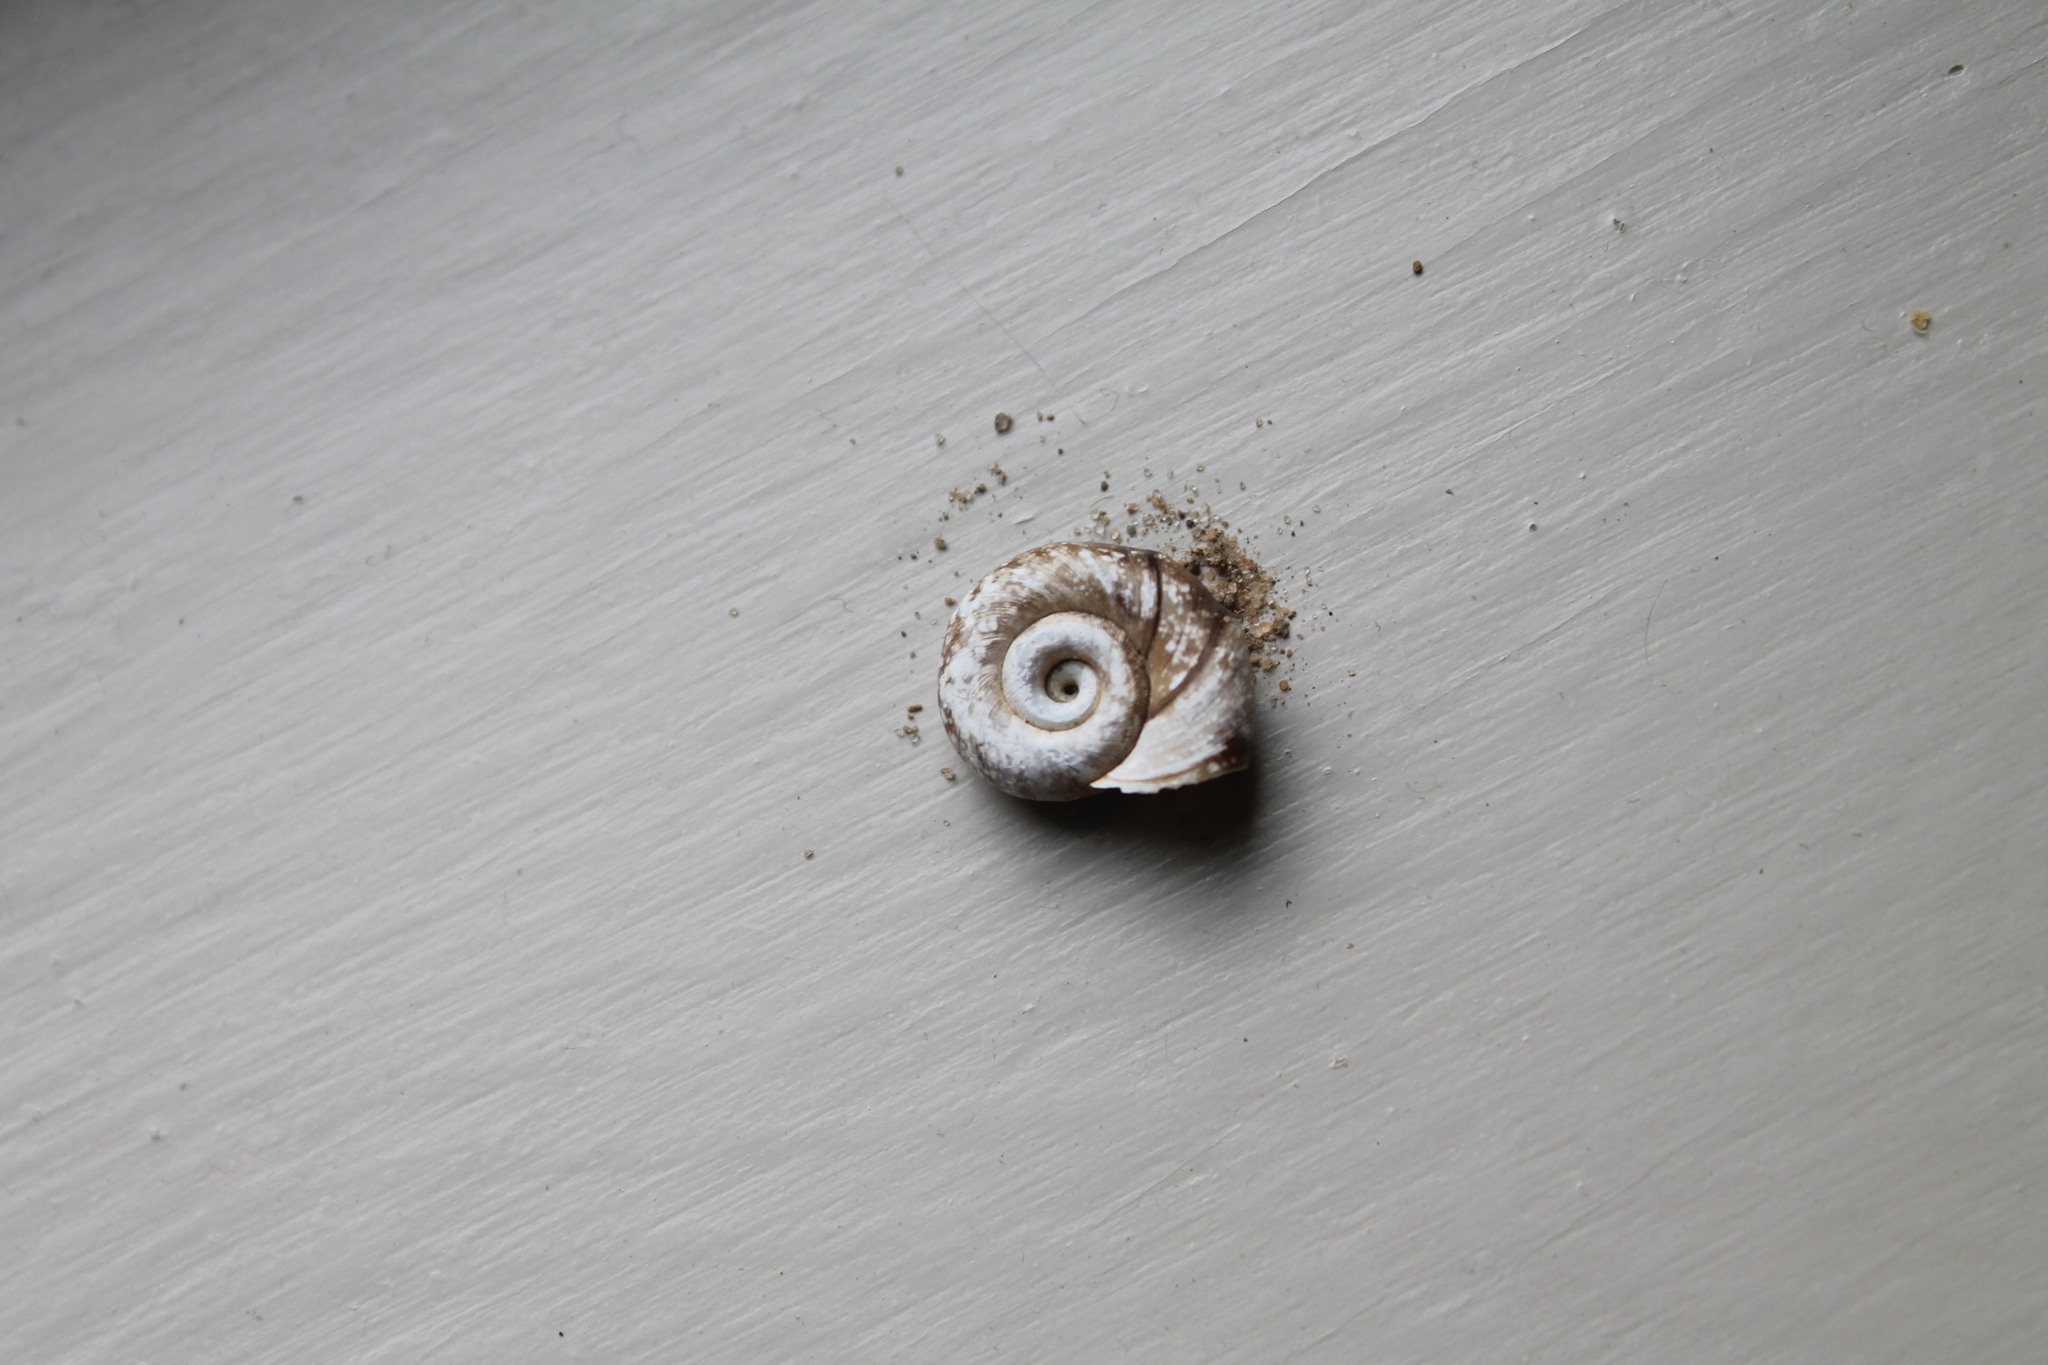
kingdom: Animalia
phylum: Mollusca
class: Gastropoda
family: Planorbidae
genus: Planorbella
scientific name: Planorbella trivolvis
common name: Marsh rams-horn
